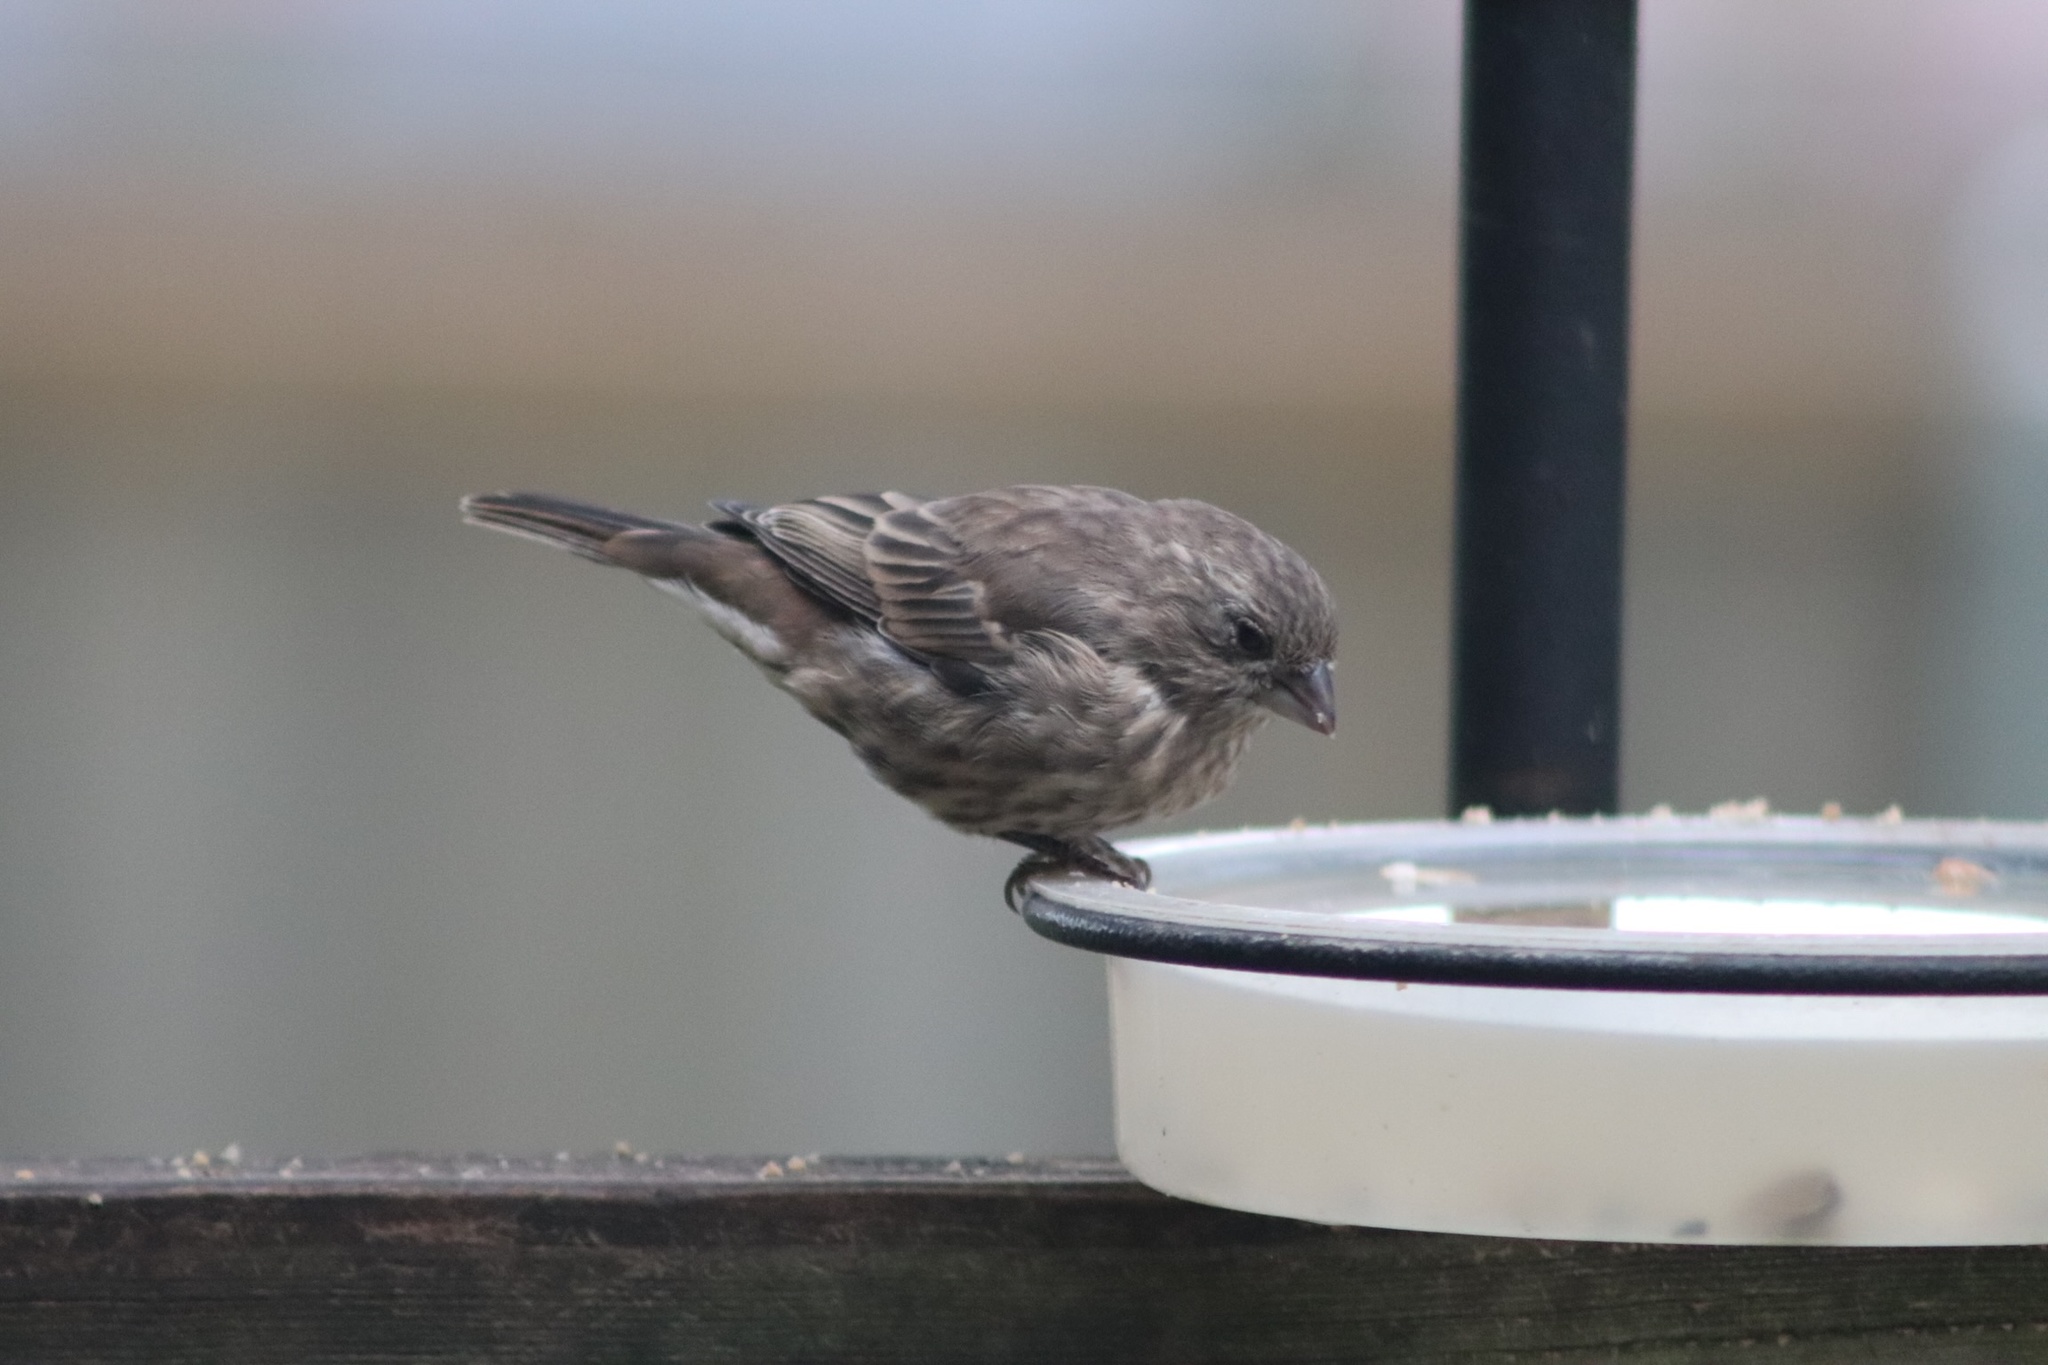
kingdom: Animalia
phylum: Chordata
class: Aves
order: Passeriformes
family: Fringillidae
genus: Haemorhous
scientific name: Haemorhous mexicanus
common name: House finch
